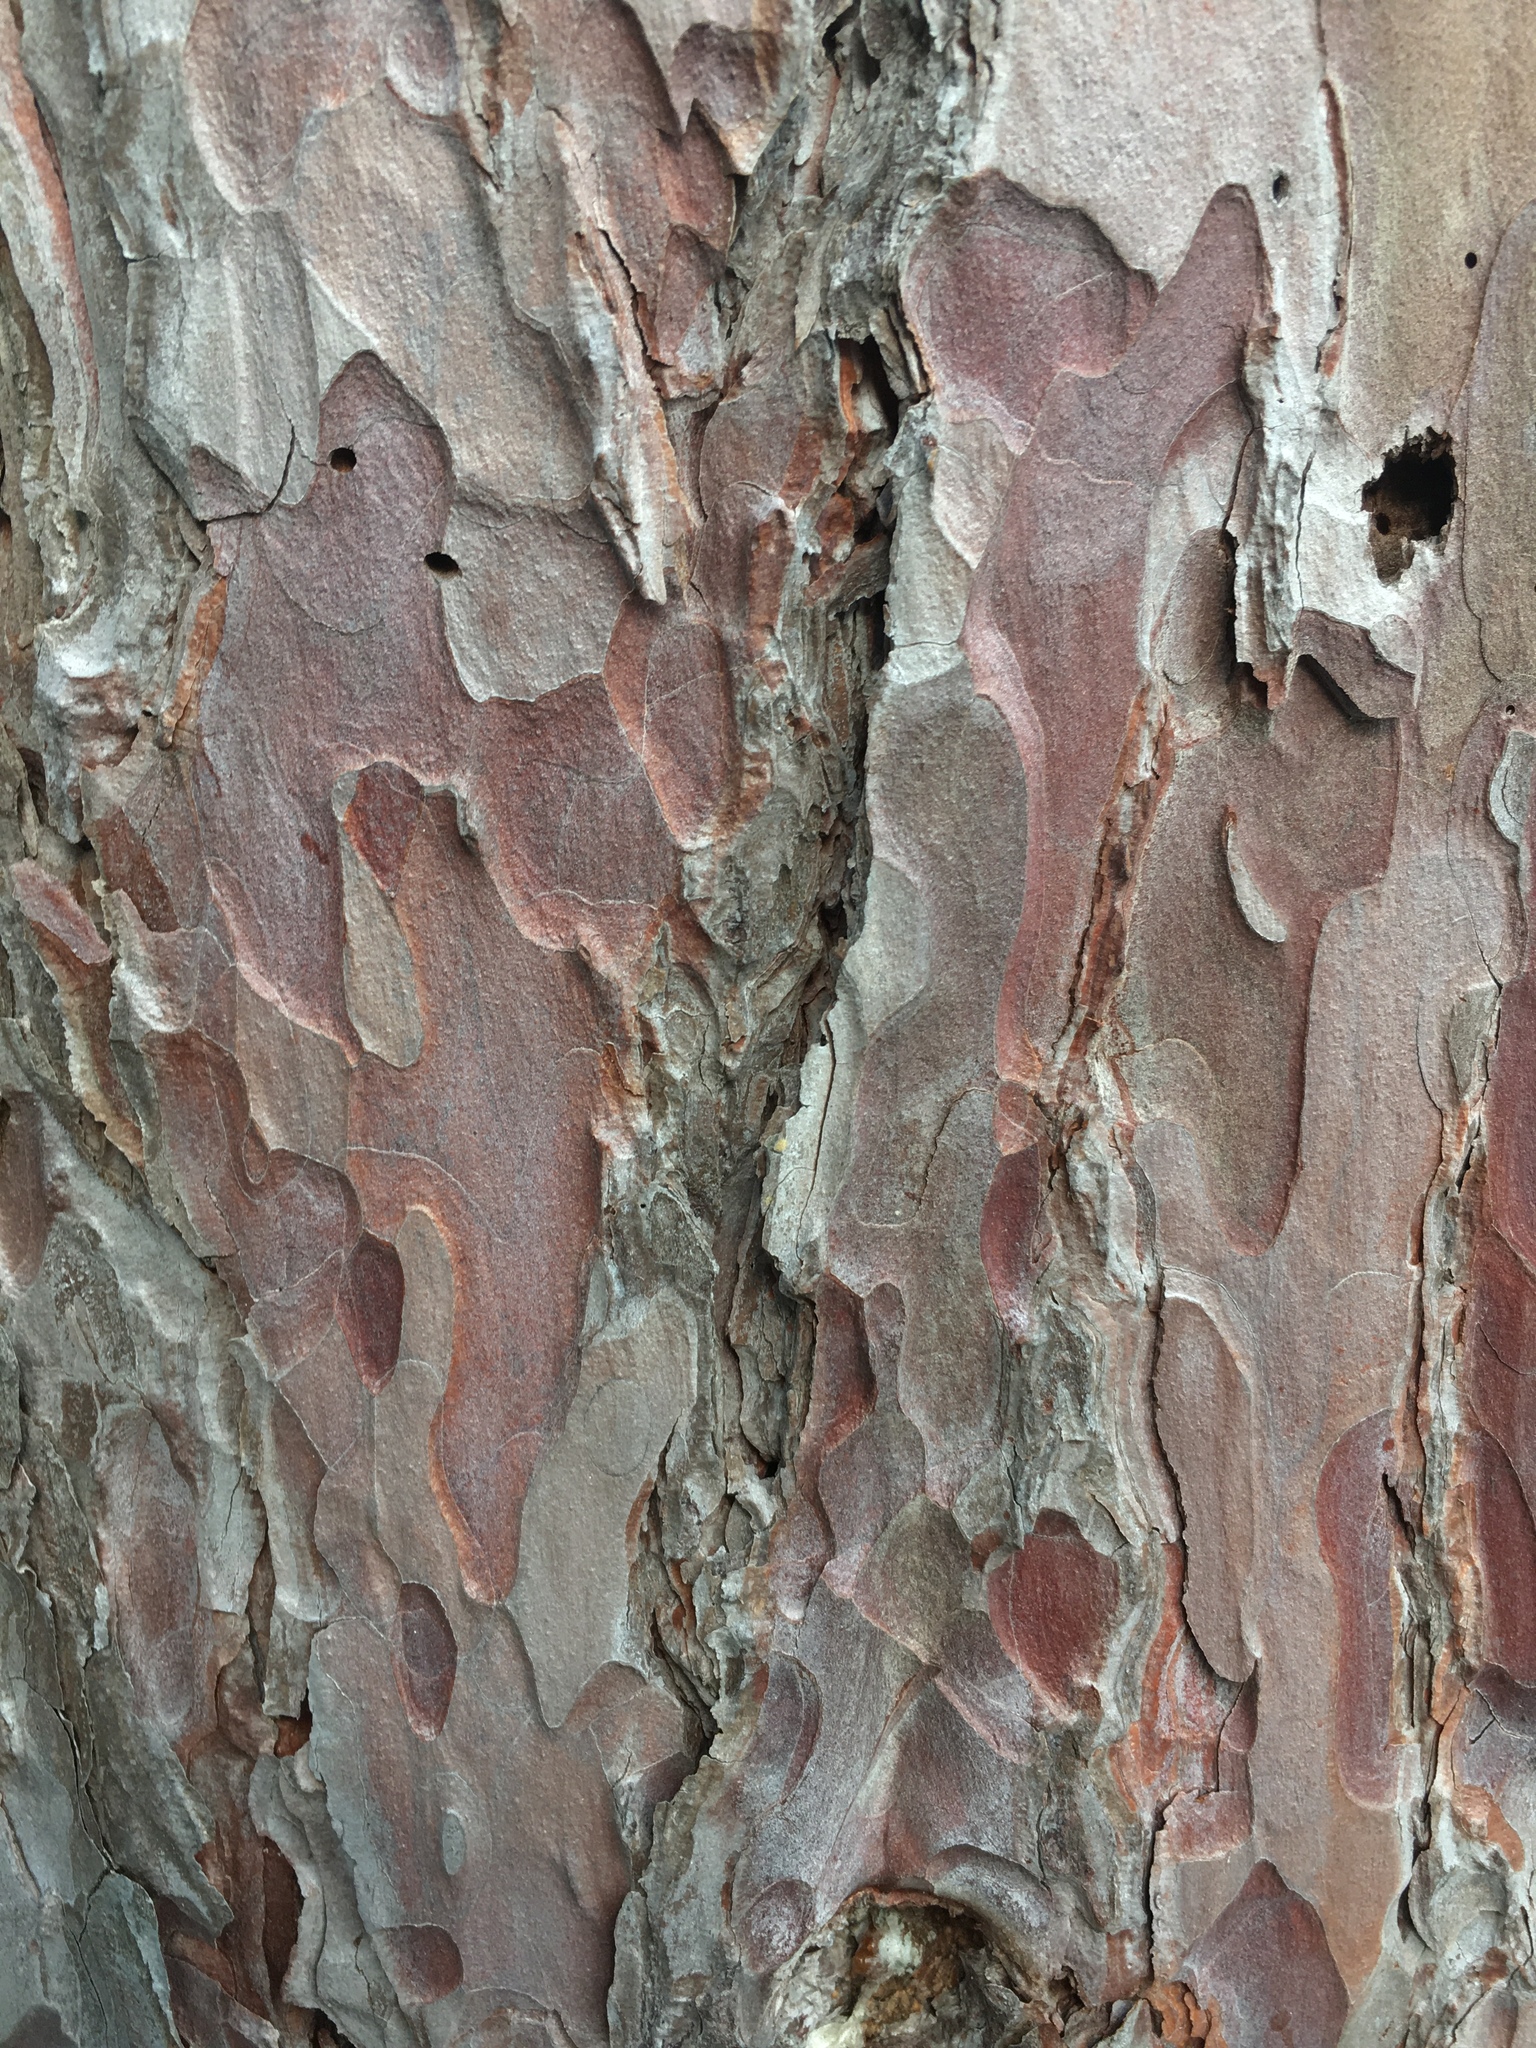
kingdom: Plantae
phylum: Tracheophyta
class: Pinopsida
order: Pinales
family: Pinaceae
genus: Pinus
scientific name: Pinus resinosa
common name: Norway pine
